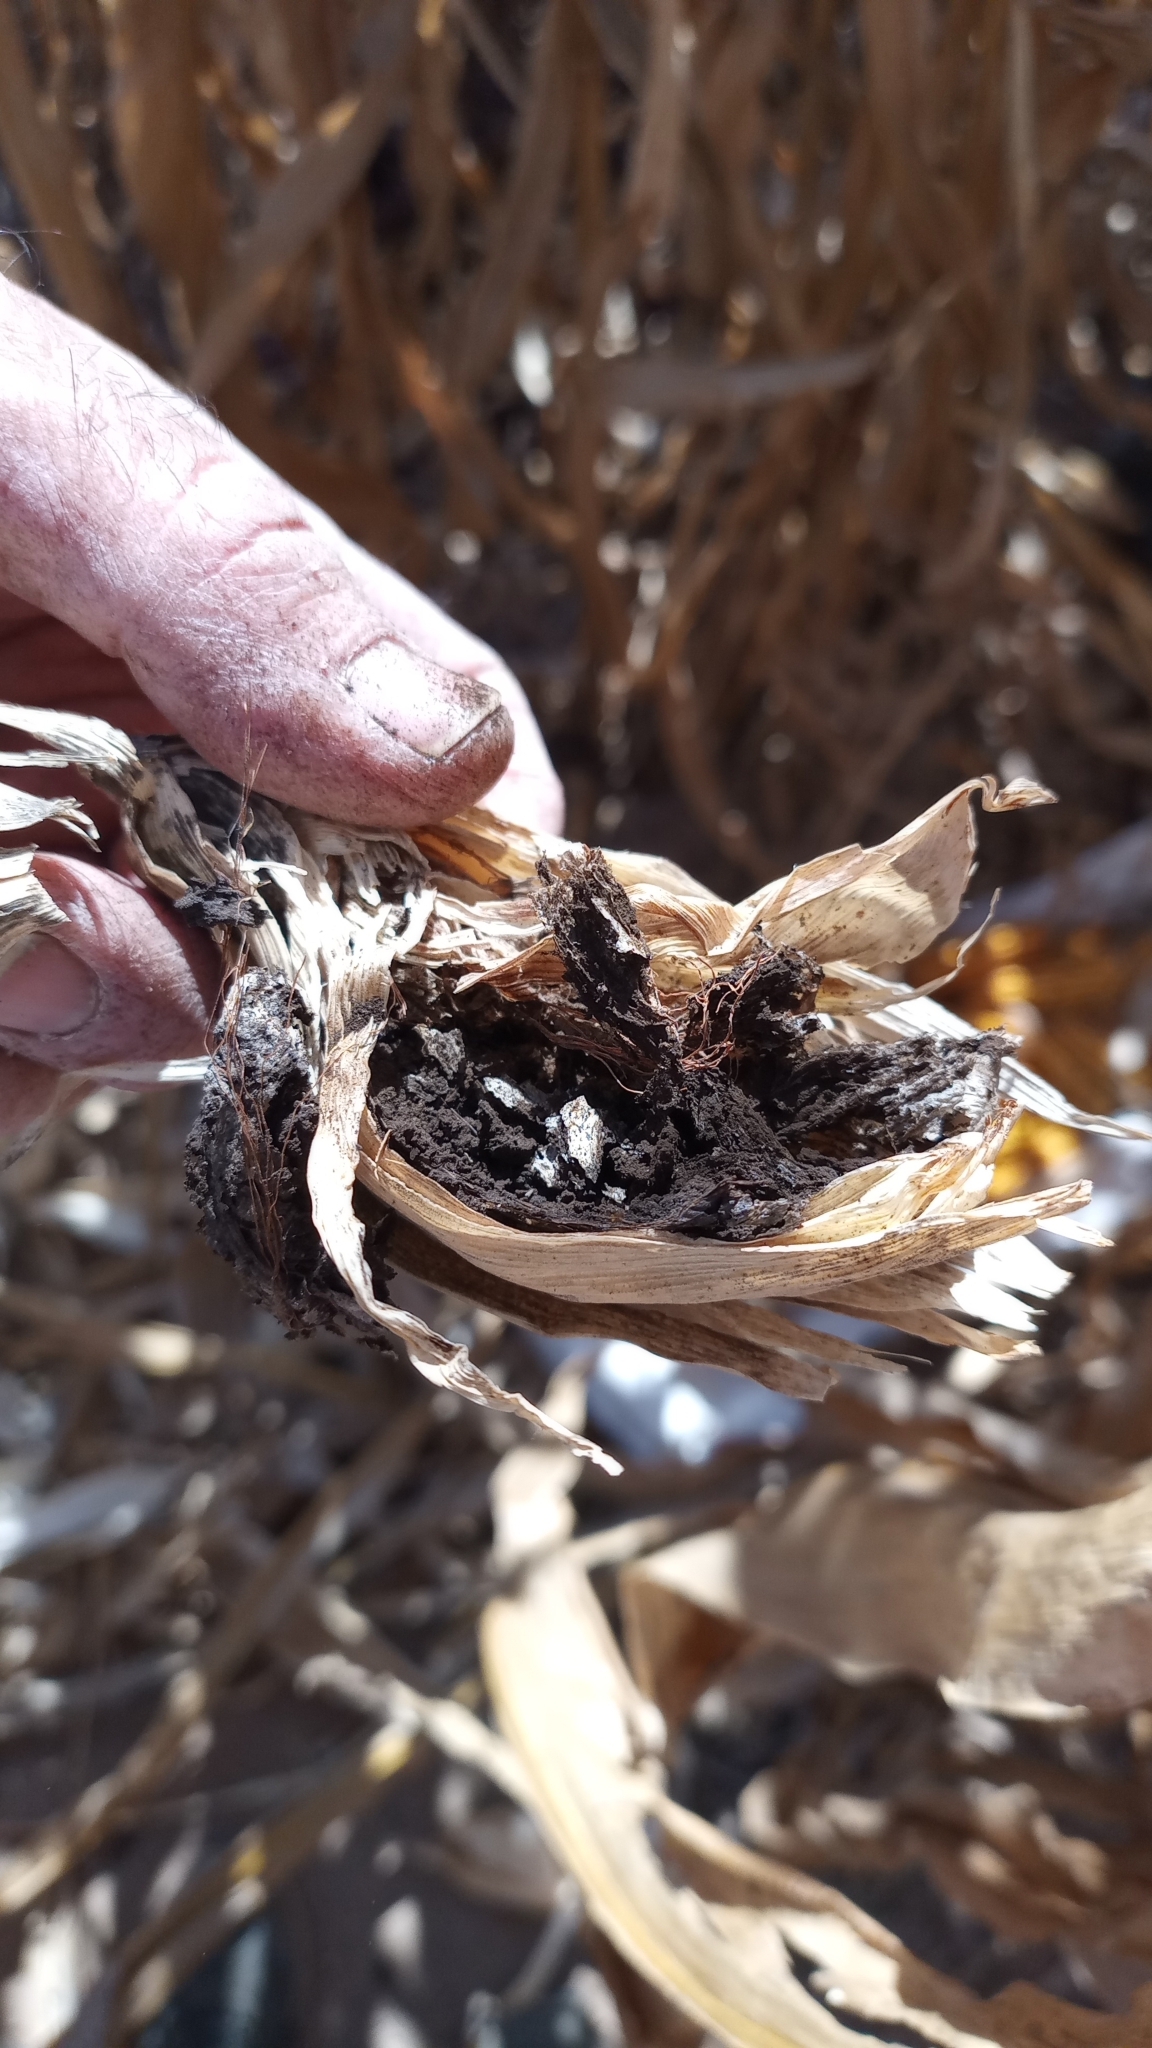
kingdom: Fungi
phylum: Basidiomycota
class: Ustilaginomycetes
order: Ustilaginales
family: Ustilaginaceae
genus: Mycosarcoma
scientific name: Mycosarcoma maydis
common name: Corn smut
